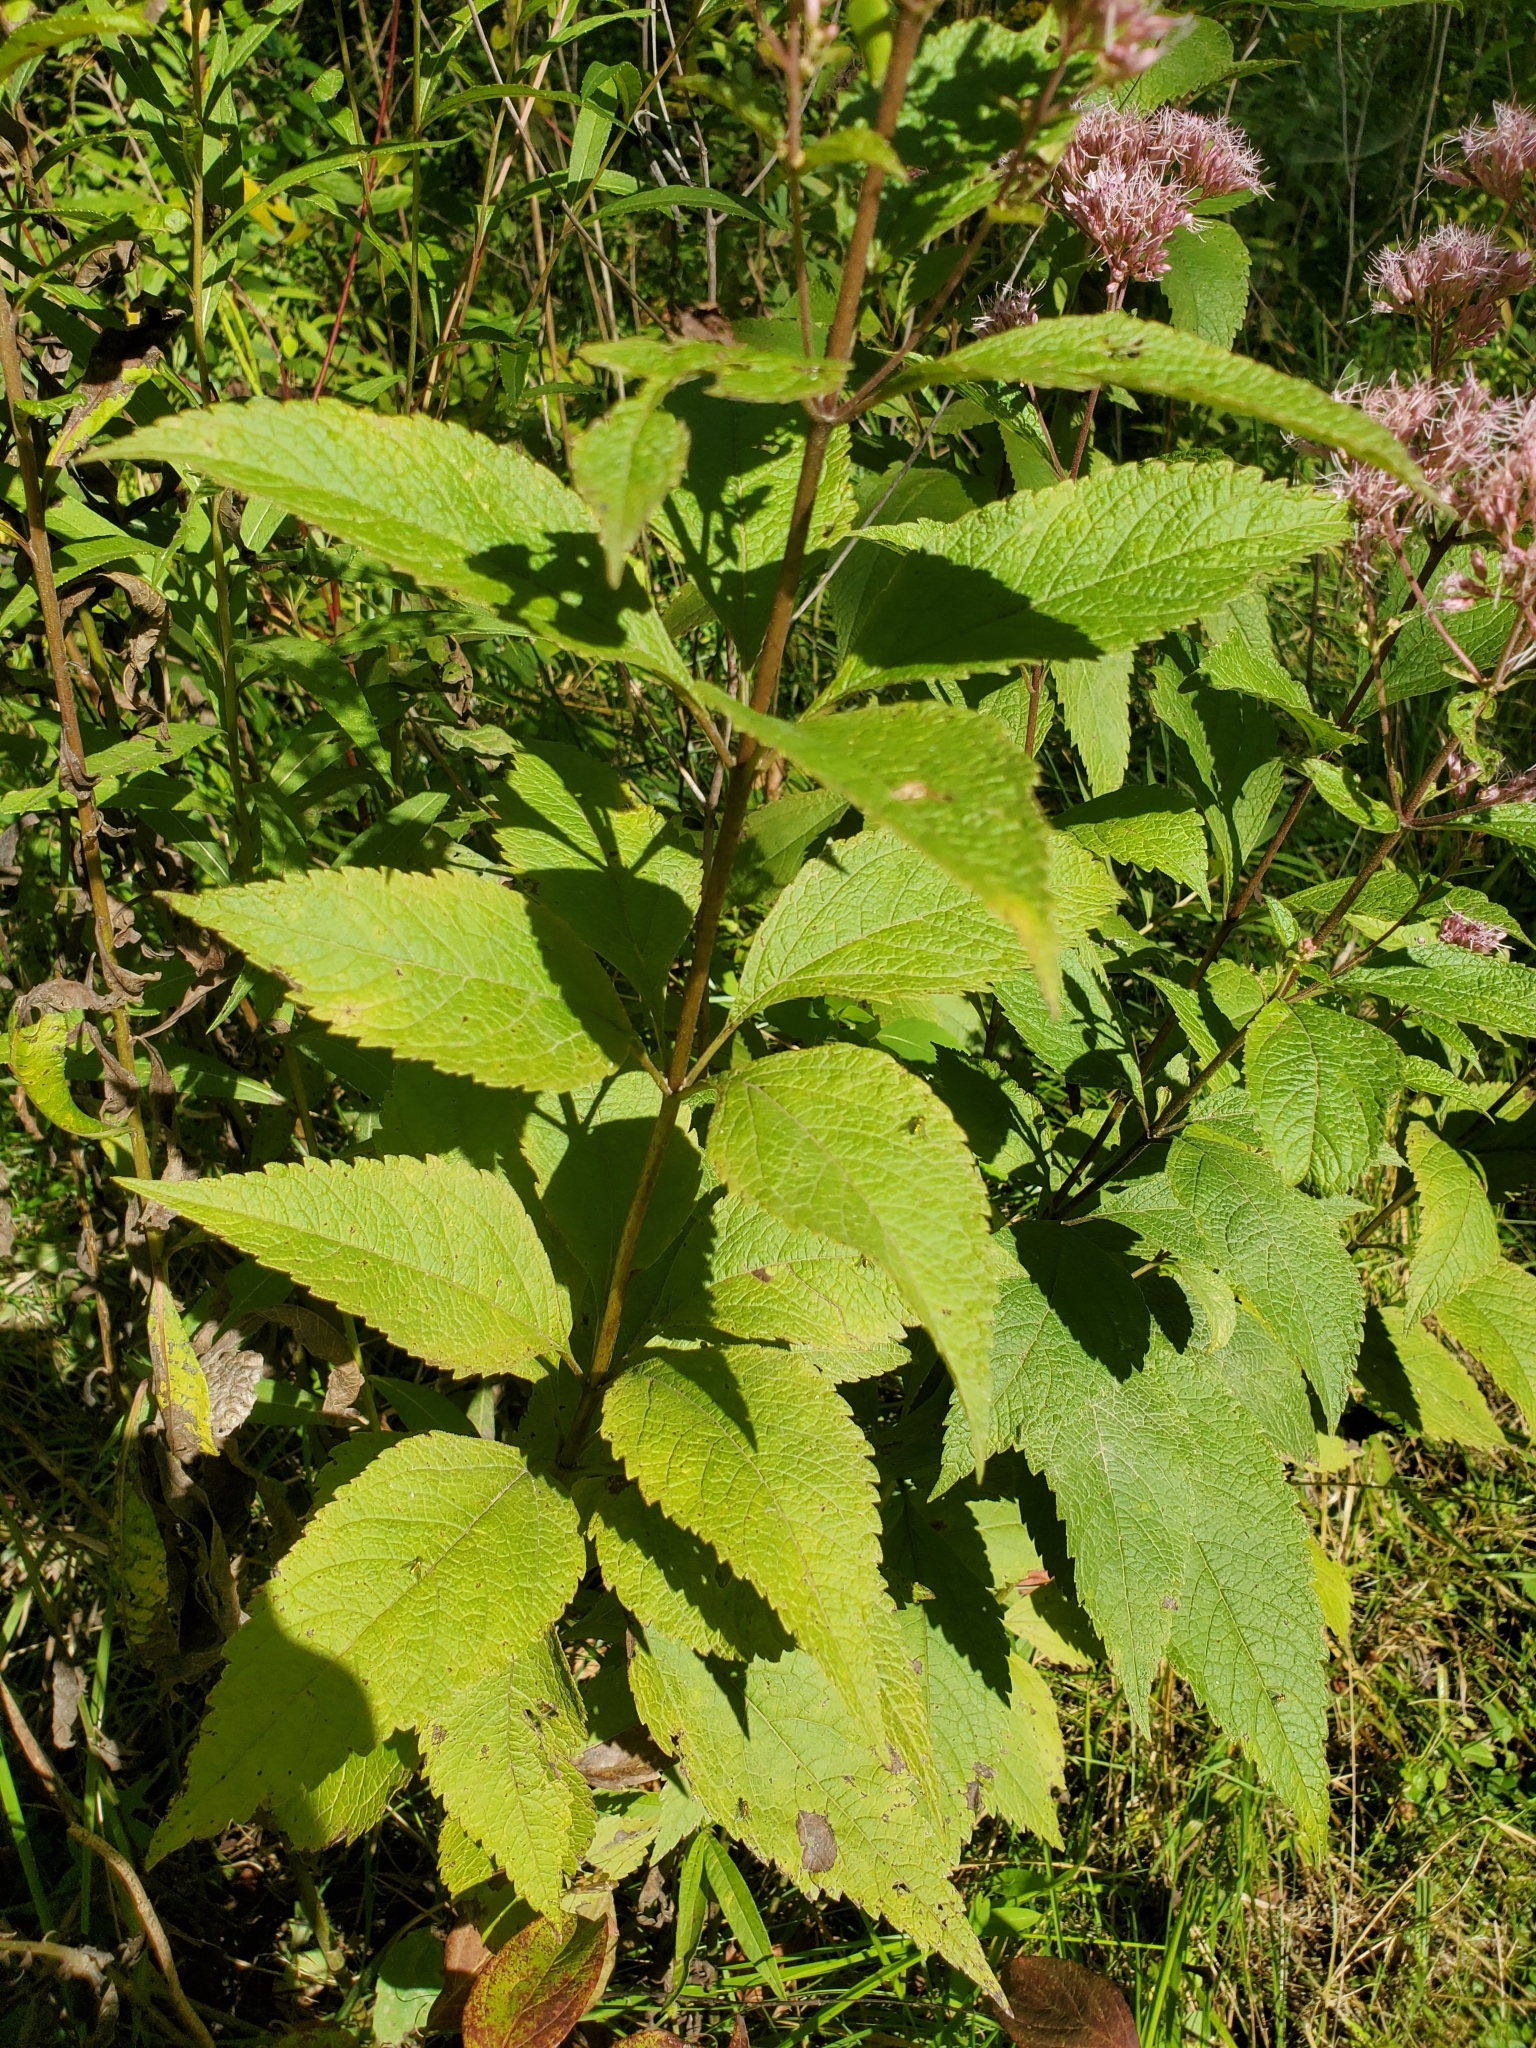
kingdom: Plantae
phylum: Tracheophyta
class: Magnoliopsida
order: Asterales
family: Asteraceae
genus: Eutrochium
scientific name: Eutrochium dubium
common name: Coastal plain joe pye weed
